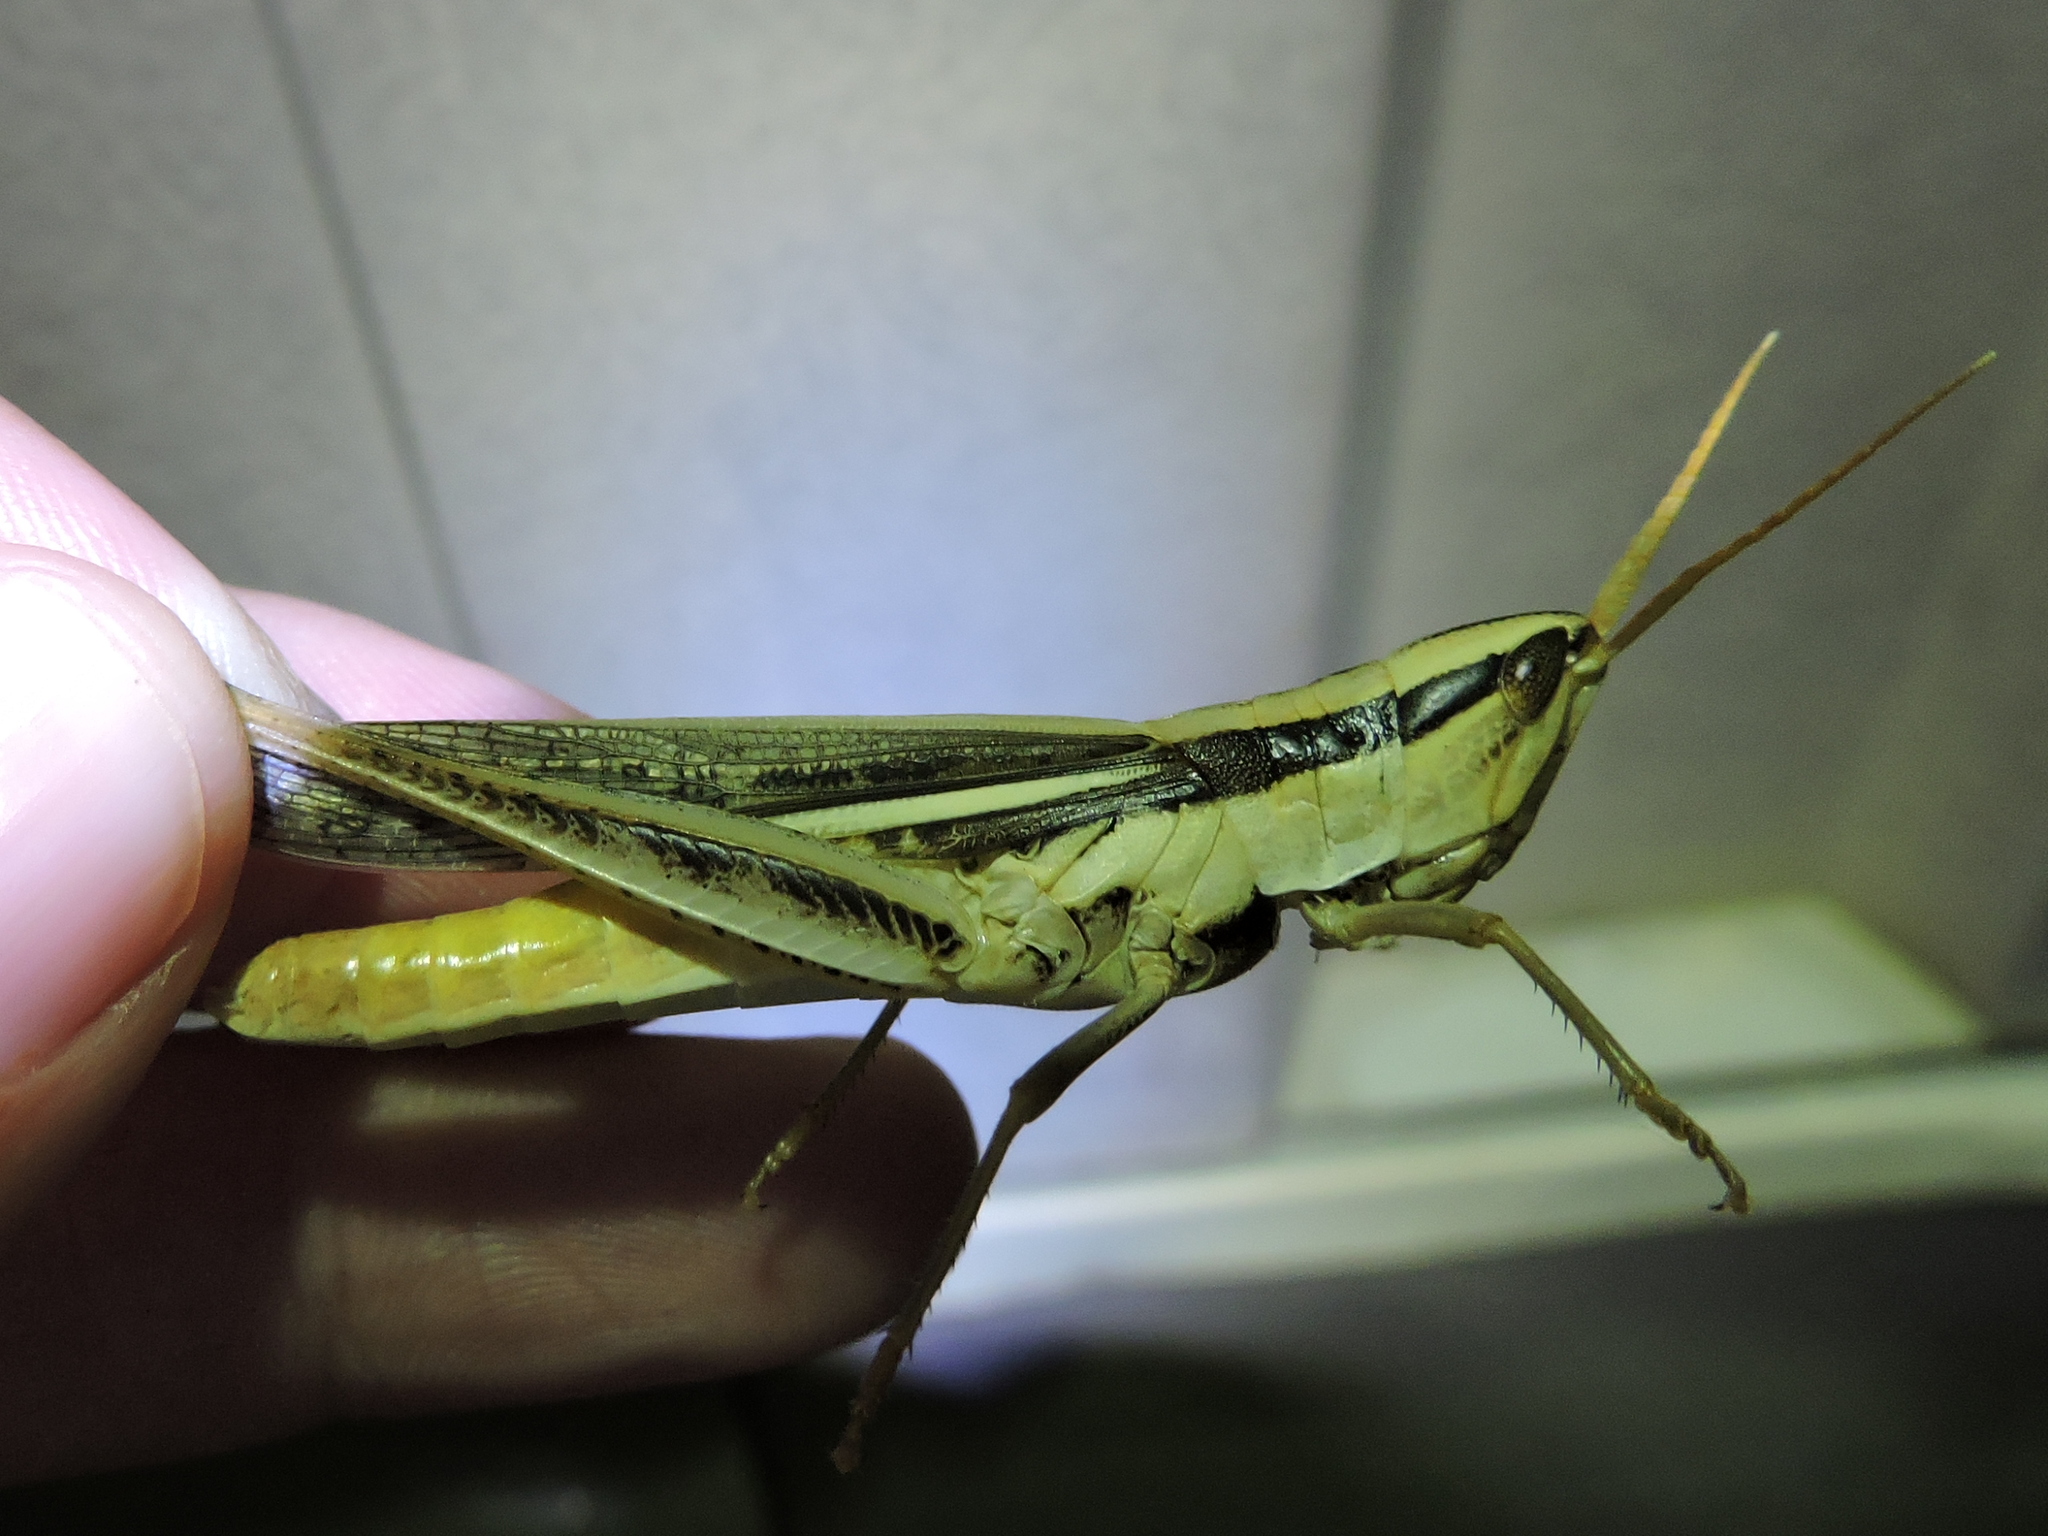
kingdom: Animalia
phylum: Arthropoda
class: Insecta
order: Orthoptera
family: Acrididae
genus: Mermiria
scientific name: Mermiria bivittata
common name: Two-striped mermiria grasshopper
